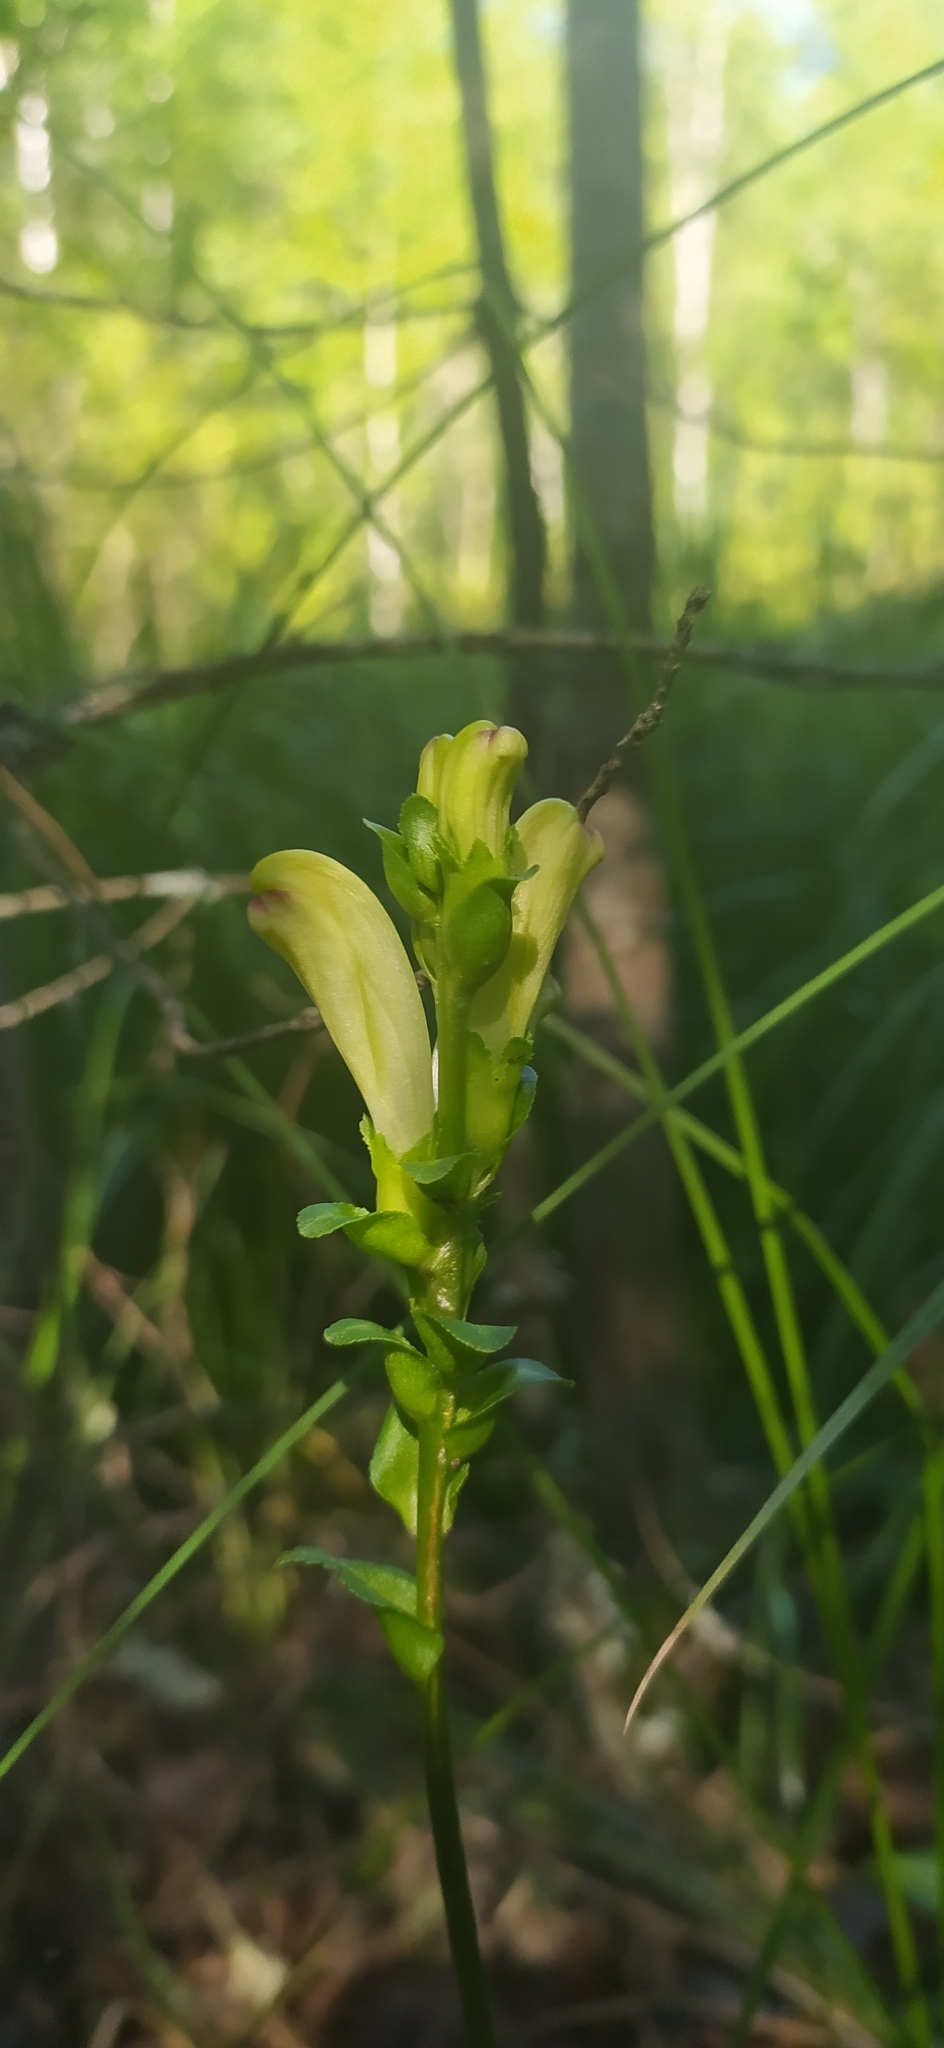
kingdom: Plantae
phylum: Tracheophyta
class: Magnoliopsida
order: Lamiales
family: Orobanchaceae
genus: Pedicularis
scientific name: Pedicularis sceptrum-carolinum
